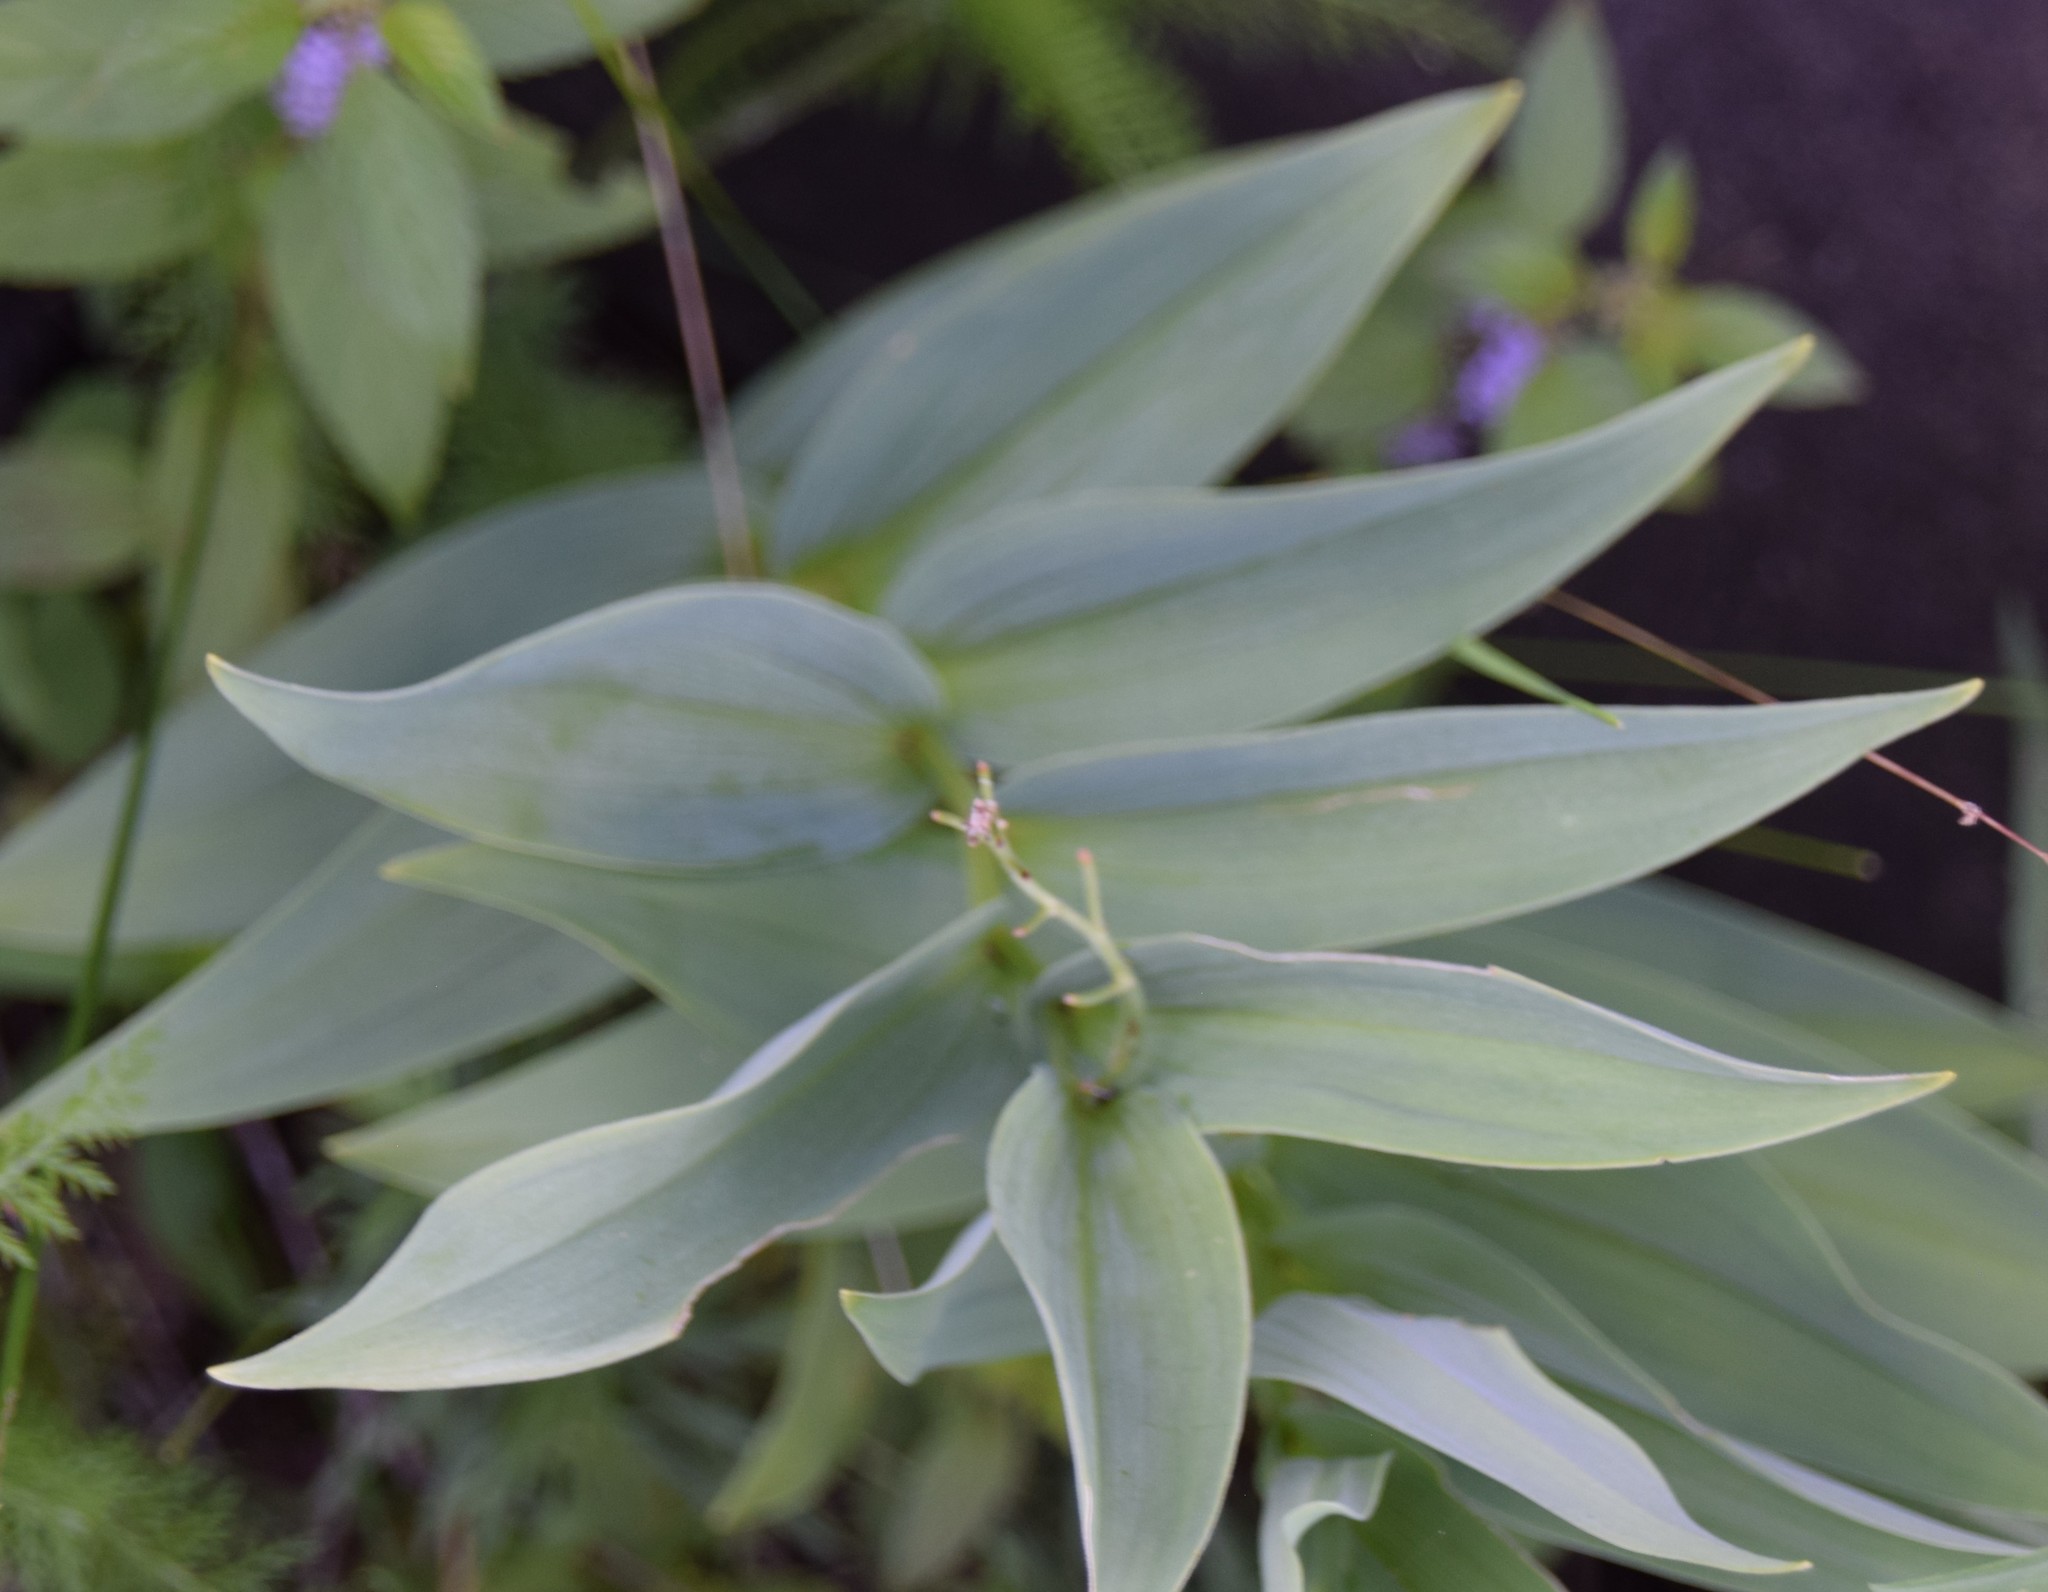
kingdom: Plantae
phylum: Tracheophyta
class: Liliopsida
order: Asparagales
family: Asparagaceae
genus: Maianthemum
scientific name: Maianthemum stellatum
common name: Little false solomon's seal
